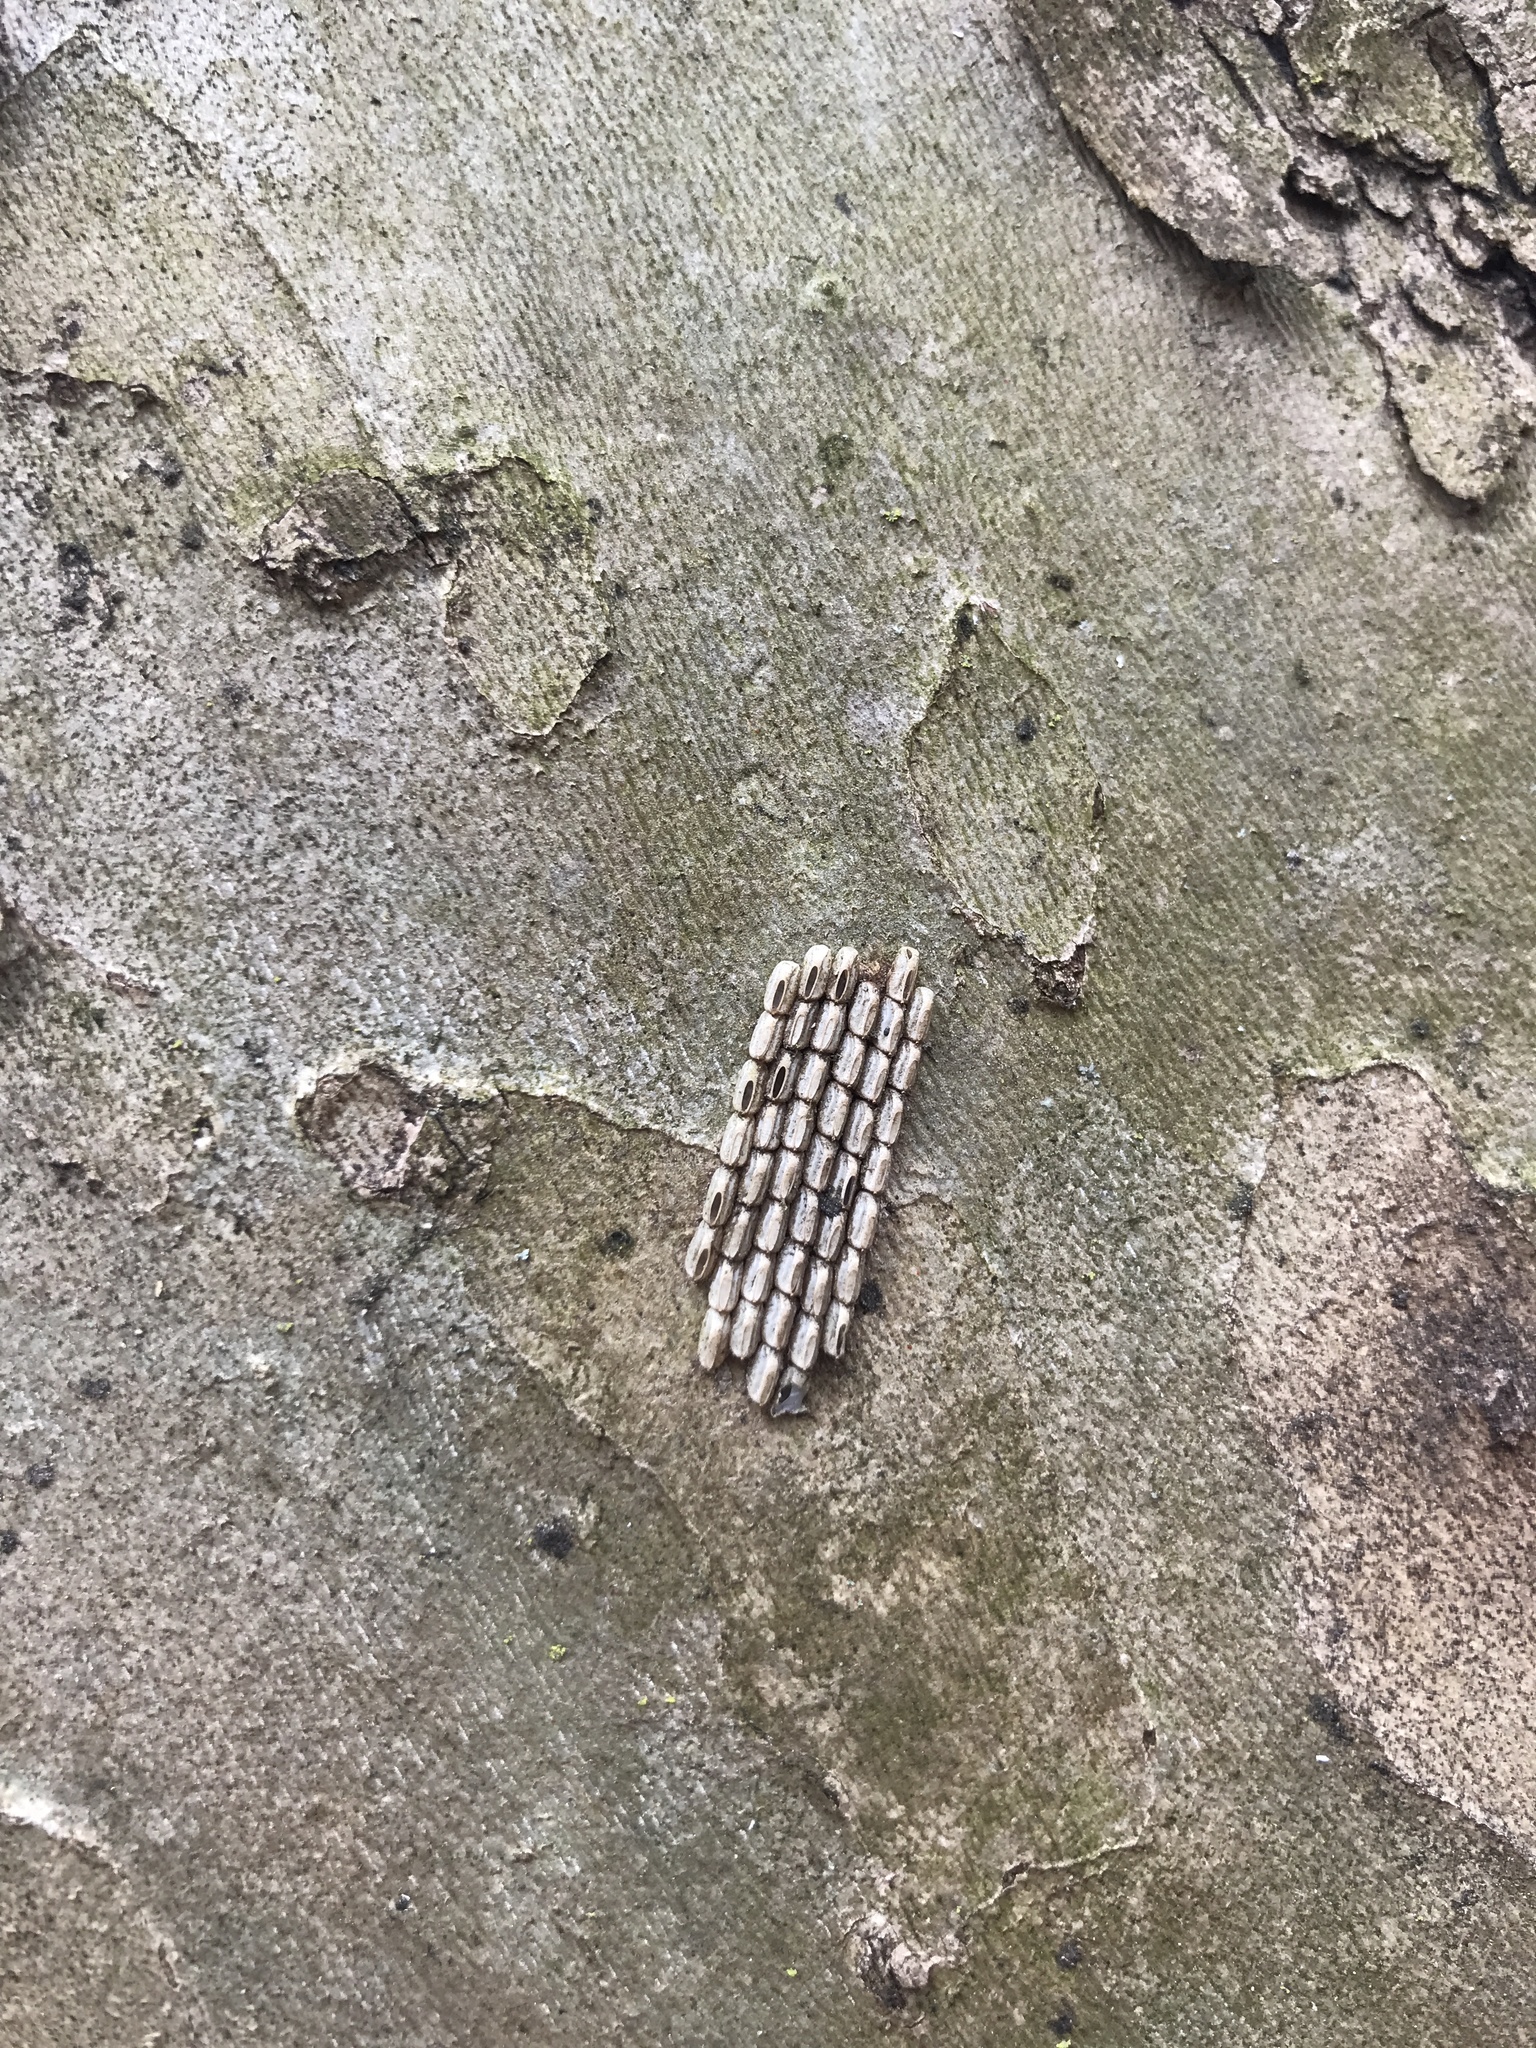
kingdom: Animalia
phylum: Arthropoda
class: Insecta
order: Hemiptera
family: Fulgoridae
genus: Lycorma
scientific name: Lycorma delicatula
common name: Spotted lanternfly
